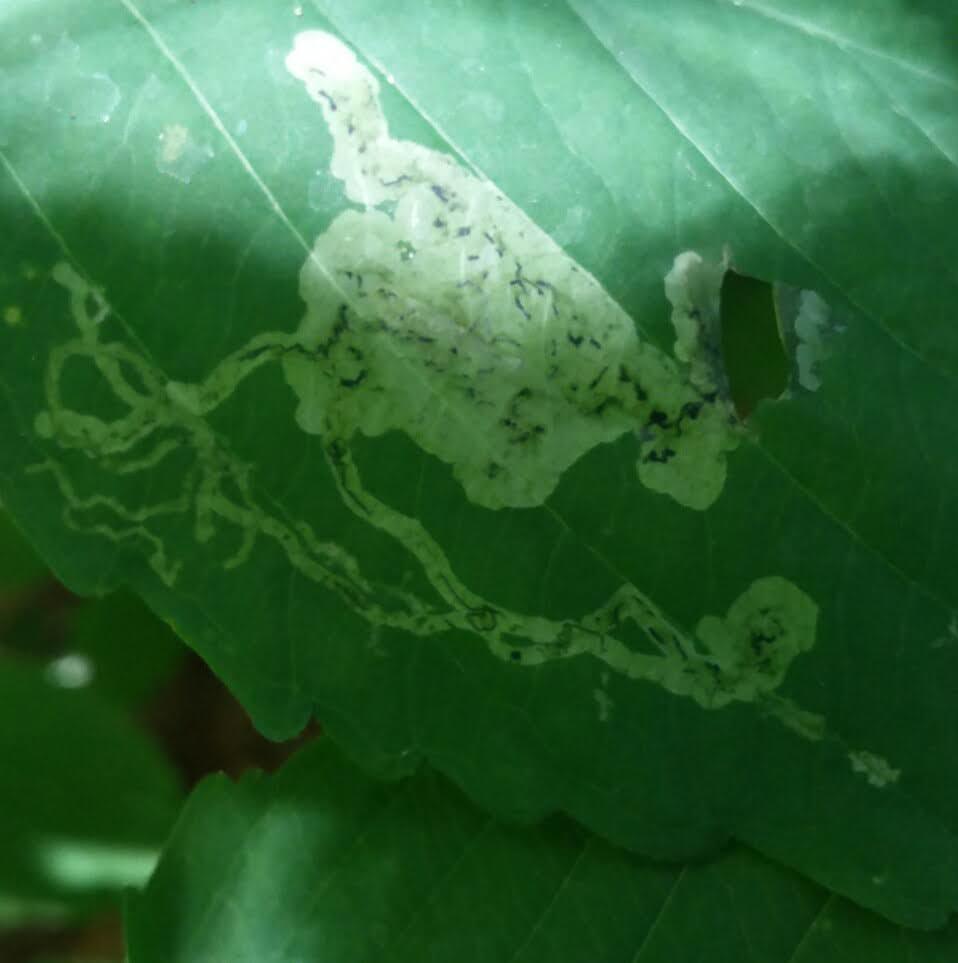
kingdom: Animalia
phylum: Arthropoda
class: Insecta
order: Diptera
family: Agromyzidae
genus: Phytoliriomyza
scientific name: Phytoliriomyza melampyga
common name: Jewelweed leaf-miner fly
